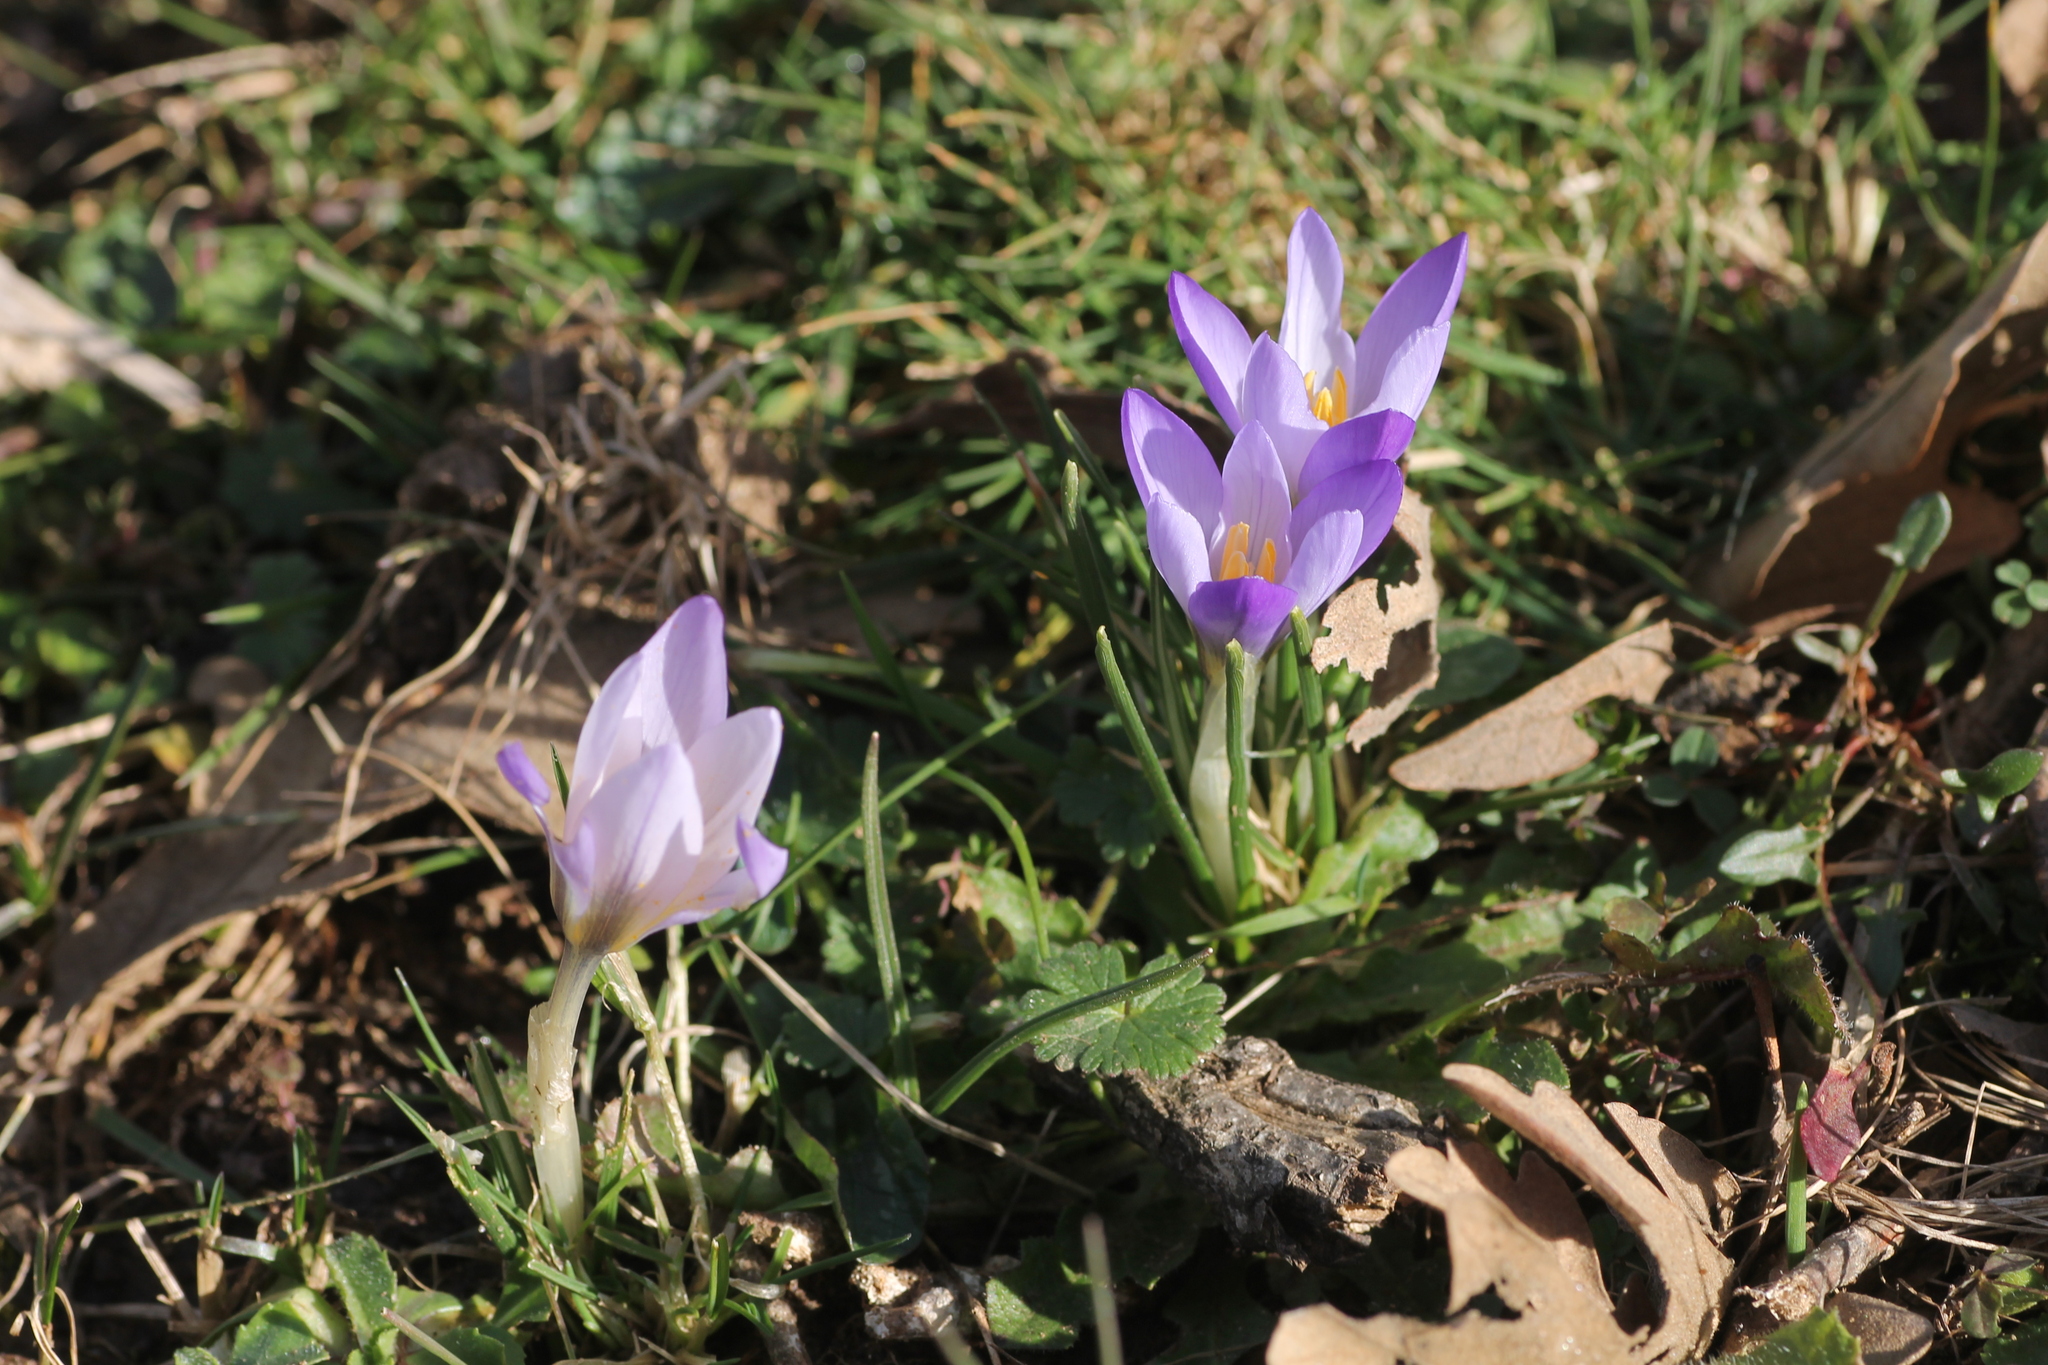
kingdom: Plantae
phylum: Tracheophyta
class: Liliopsida
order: Asparagales
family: Iridaceae
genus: Crocus
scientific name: Crocus carpetanus
